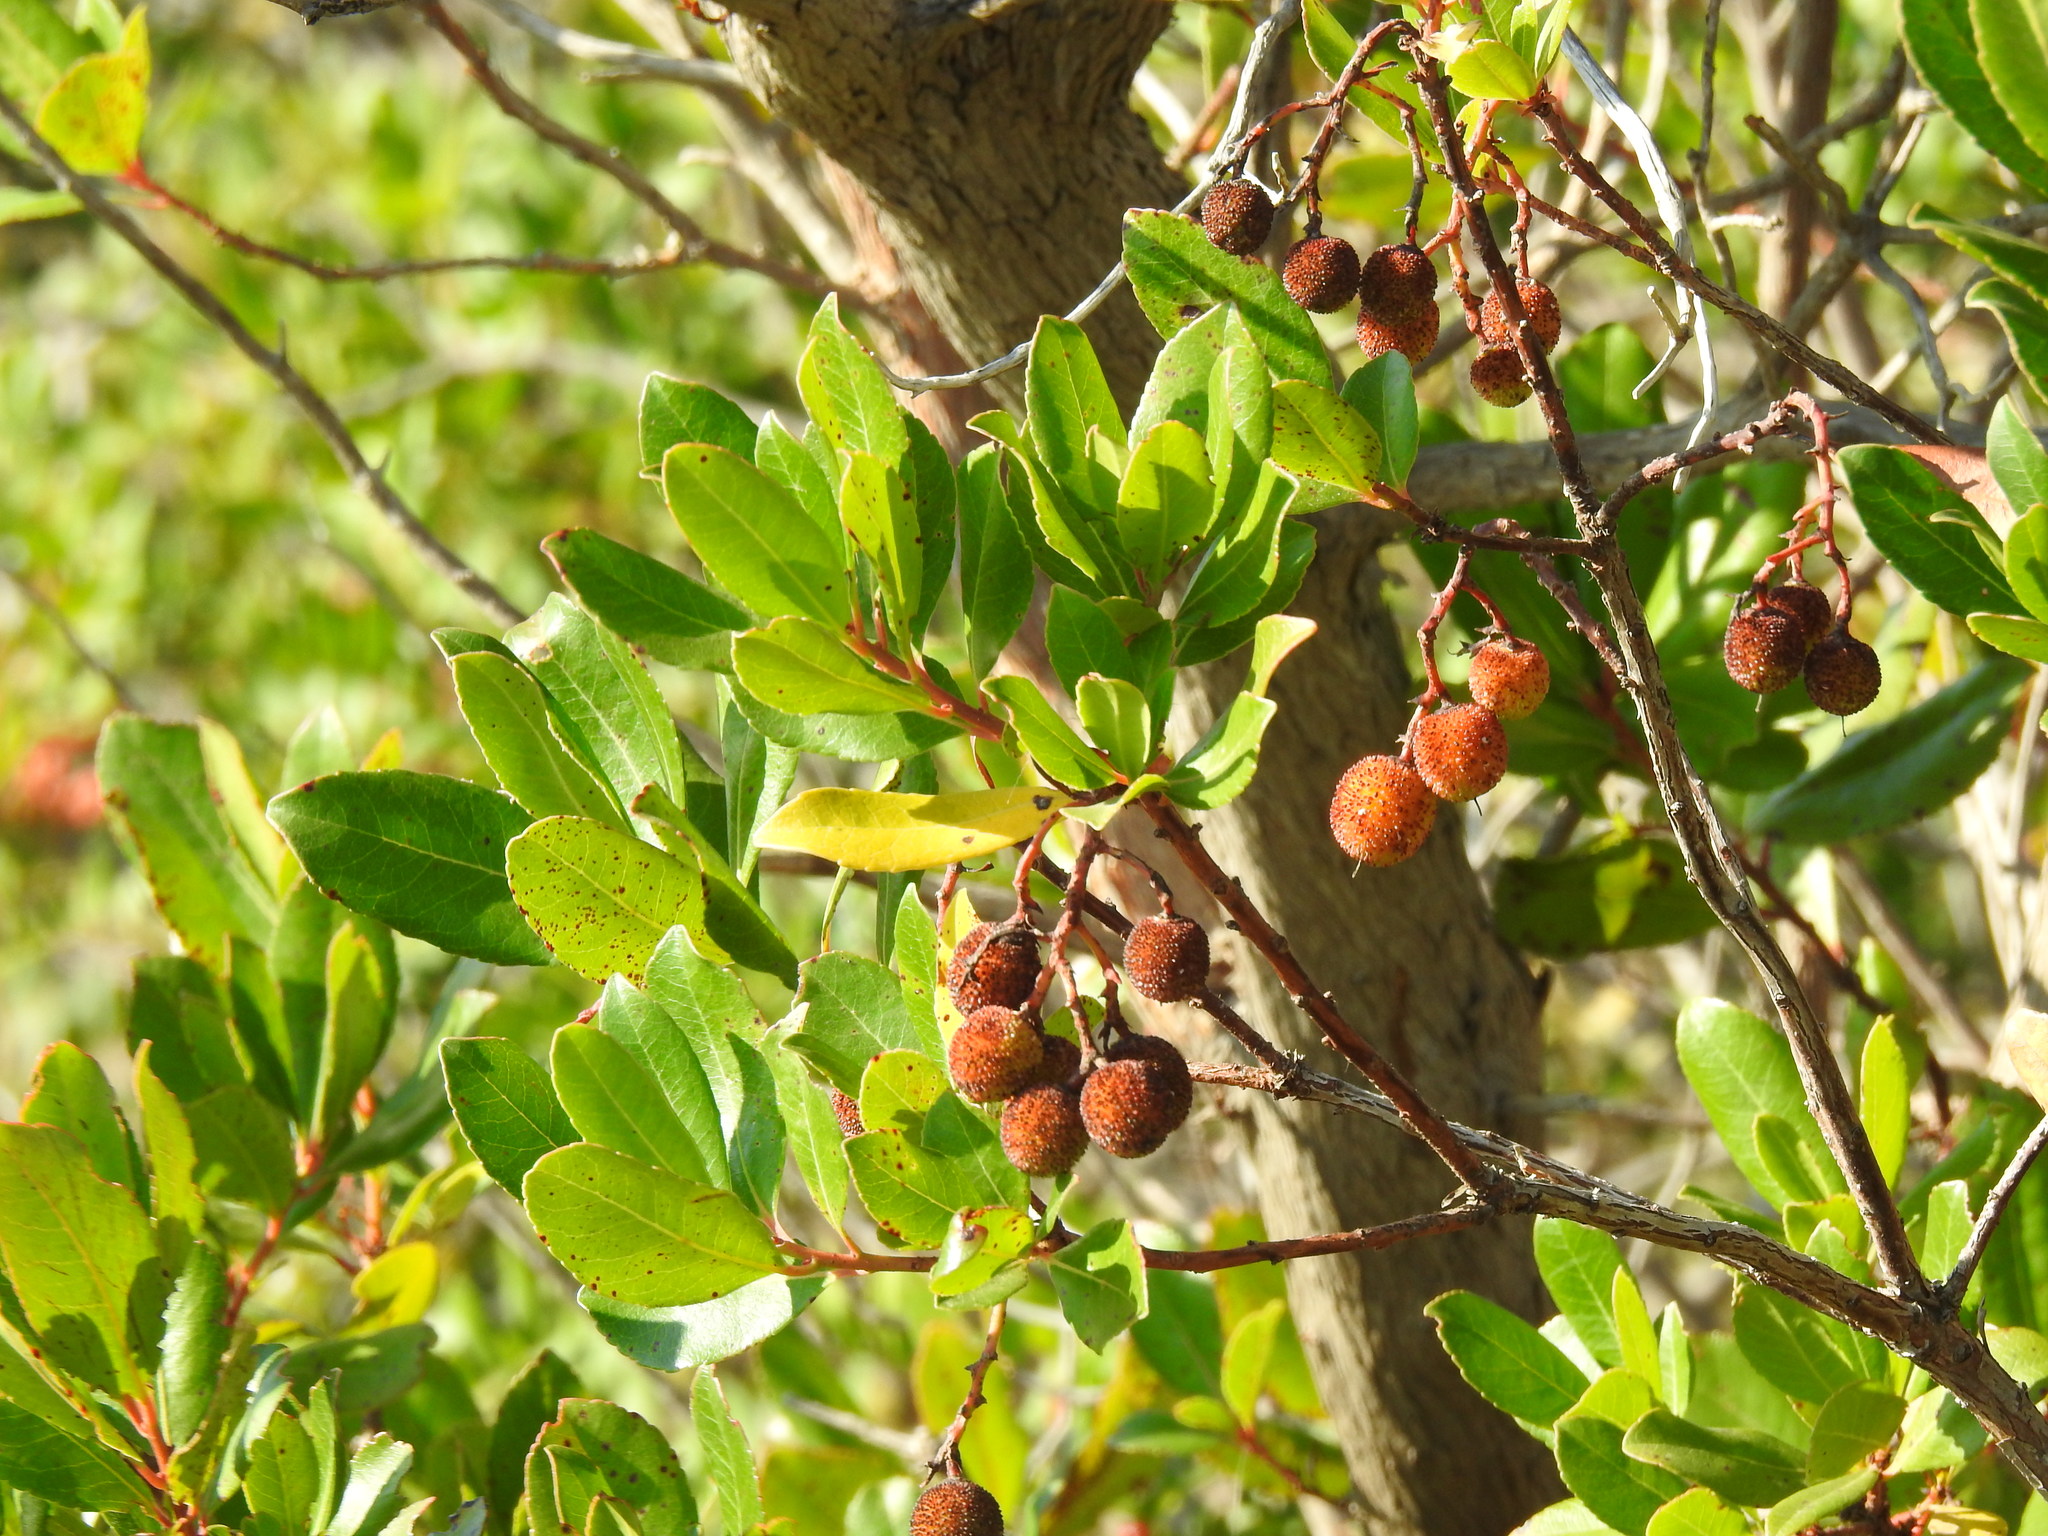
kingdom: Plantae
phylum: Tracheophyta
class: Magnoliopsida
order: Ericales
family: Ericaceae
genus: Arbutus
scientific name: Arbutus unedo
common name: Strawberry-tree
